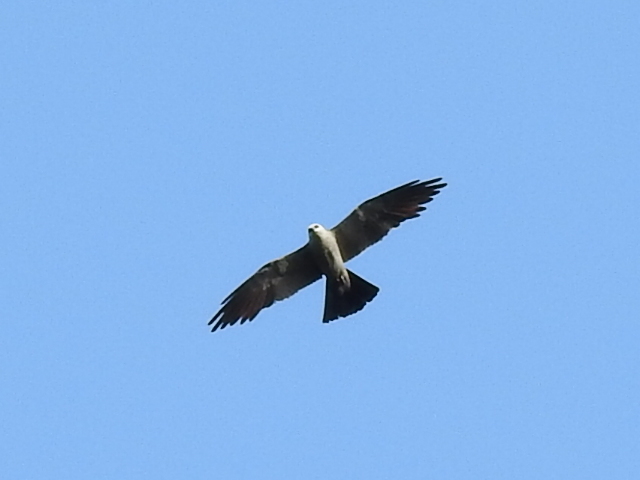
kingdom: Animalia
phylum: Chordata
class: Aves
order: Accipitriformes
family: Accipitridae
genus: Ictinia
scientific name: Ictinia mississippiensis
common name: Mississippi kite
